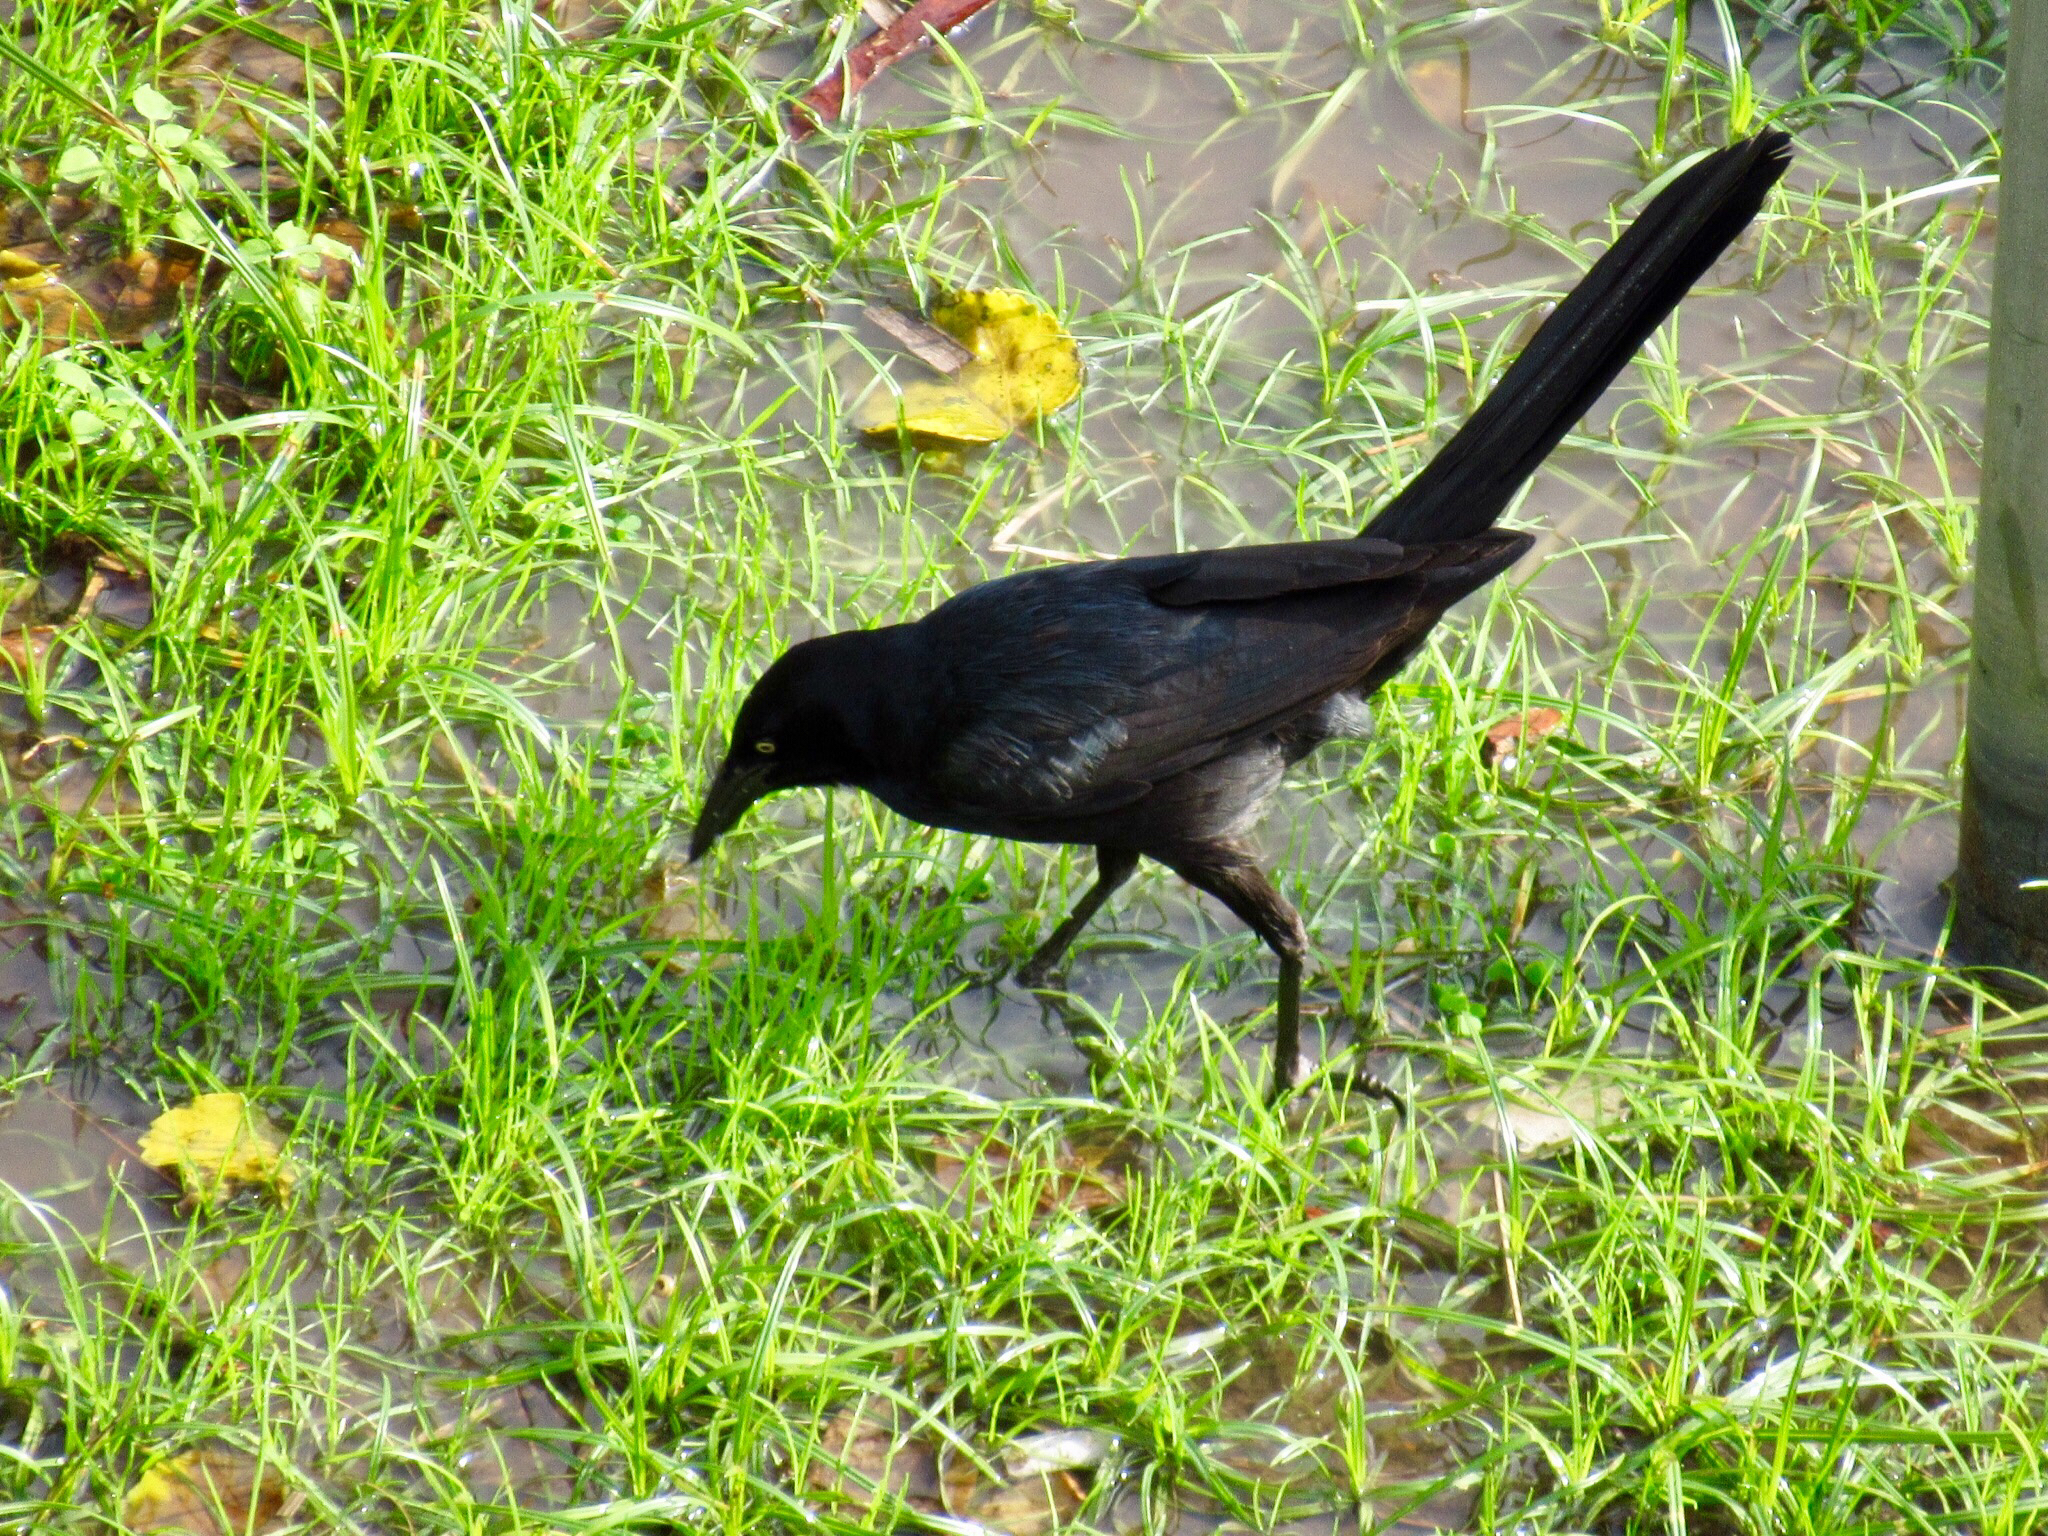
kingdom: Animalia
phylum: Chordata
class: Aves
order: Passeriformes
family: Icteridae
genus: Quiscalus
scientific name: Quiscalus mexicanus
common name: Great-tailed grackle
